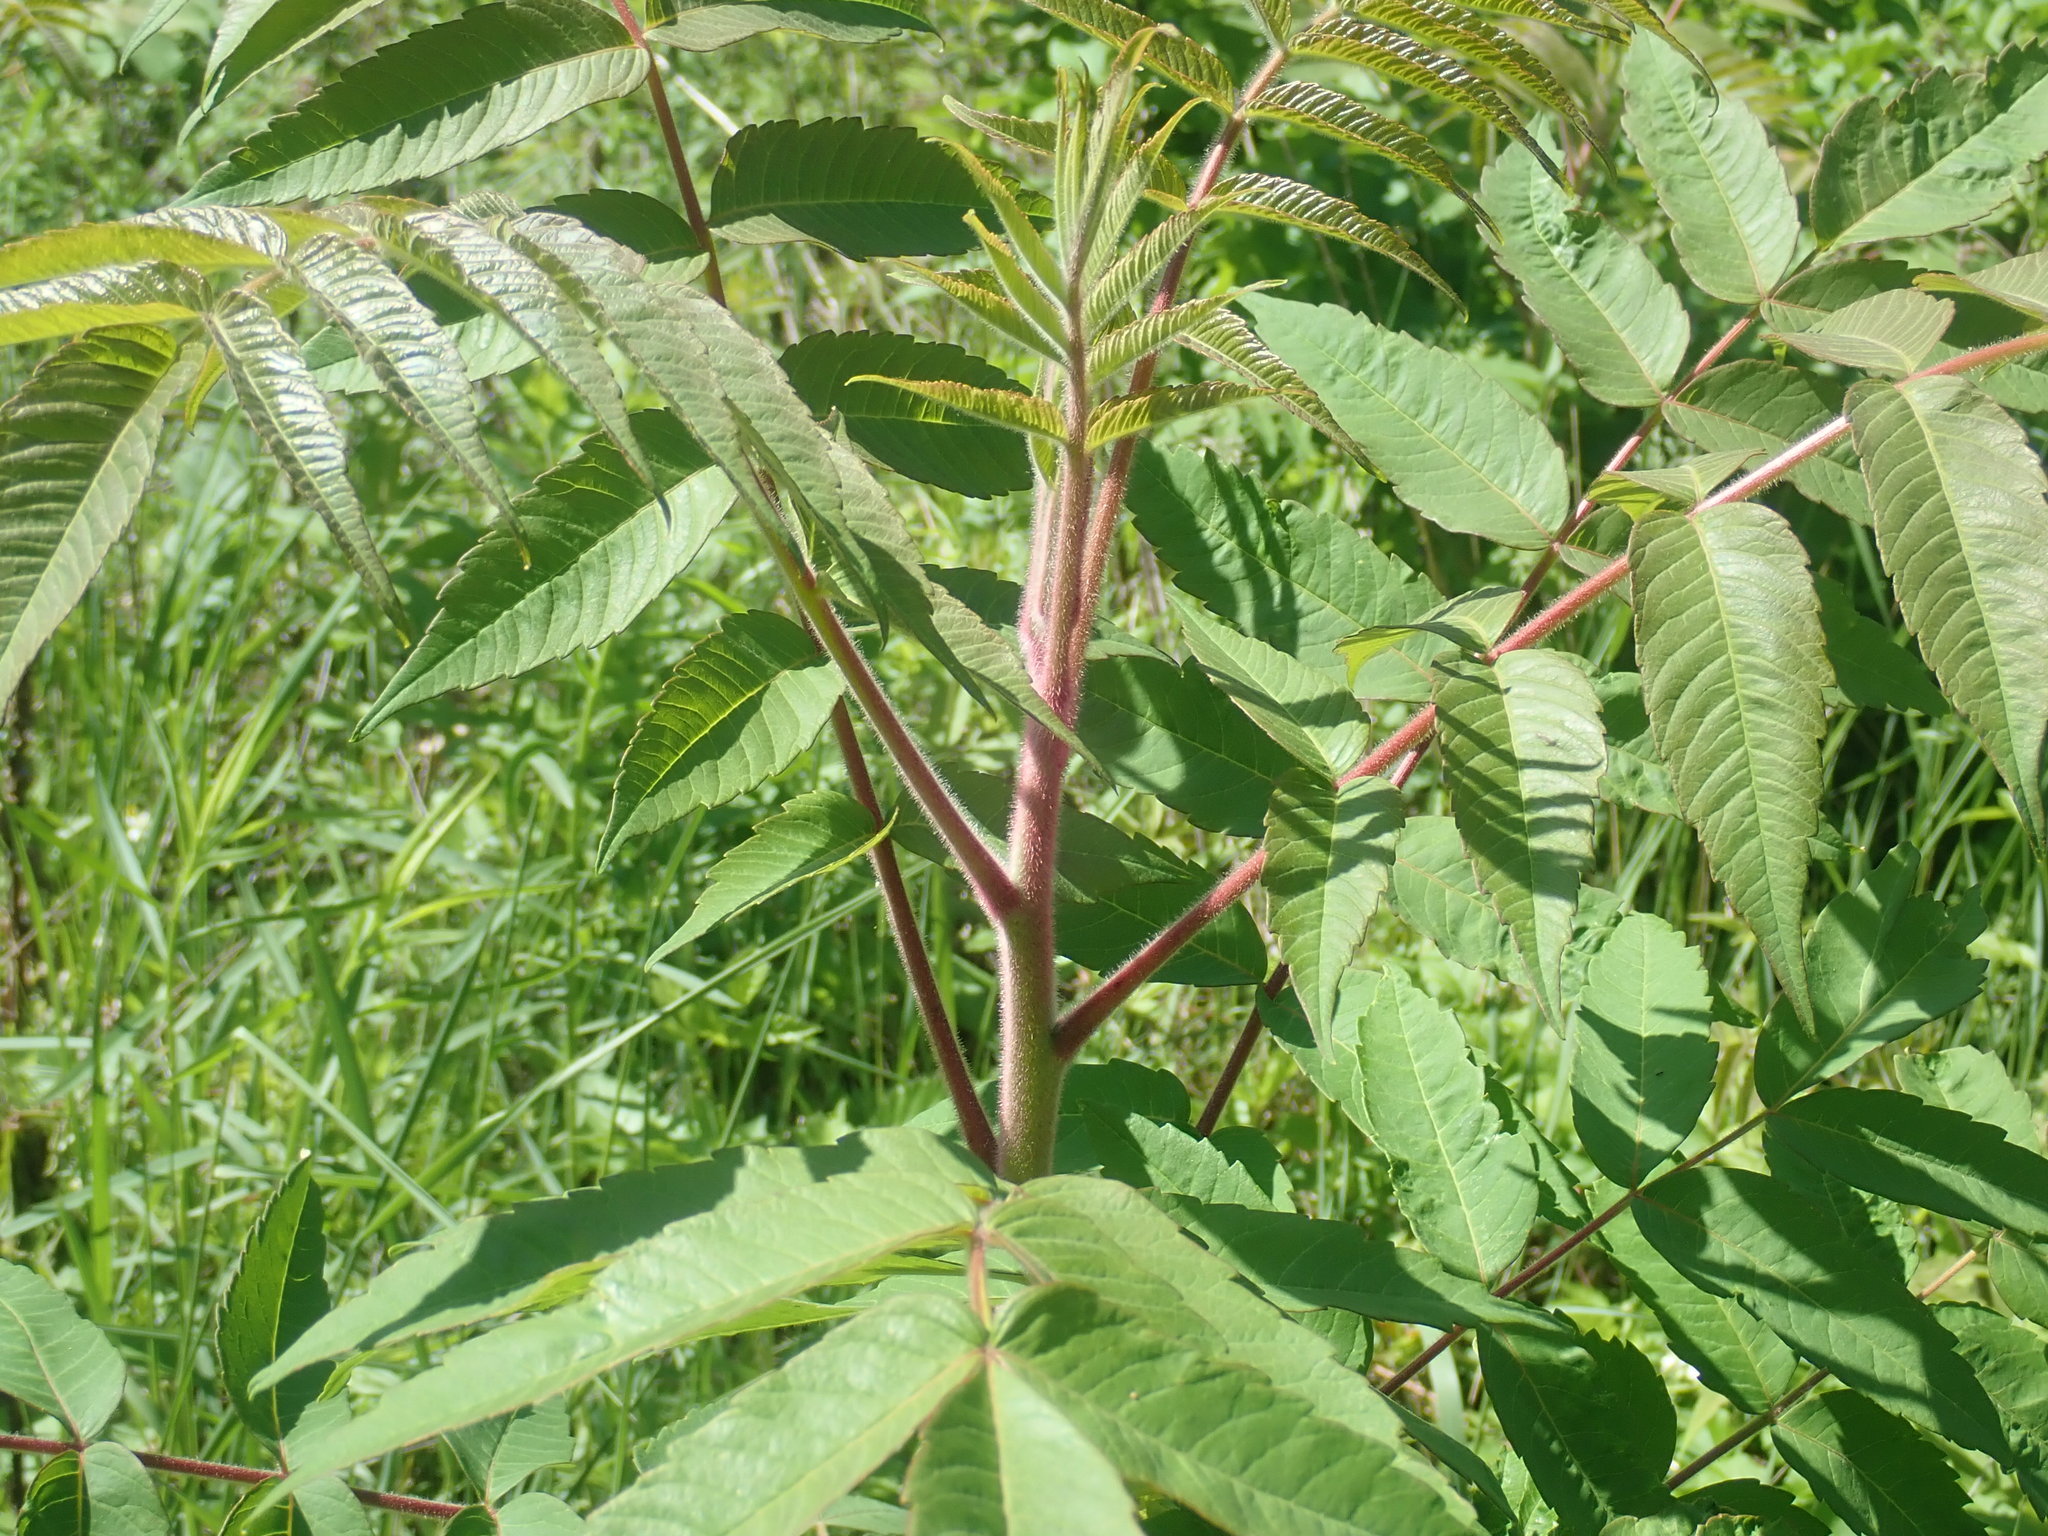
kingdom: Plantae
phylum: Tracheophyta
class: Magnoliopsida
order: Sapindales
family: Anacardiaceae
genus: Rhus
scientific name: Rhus typhina
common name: Staghorn sumac
